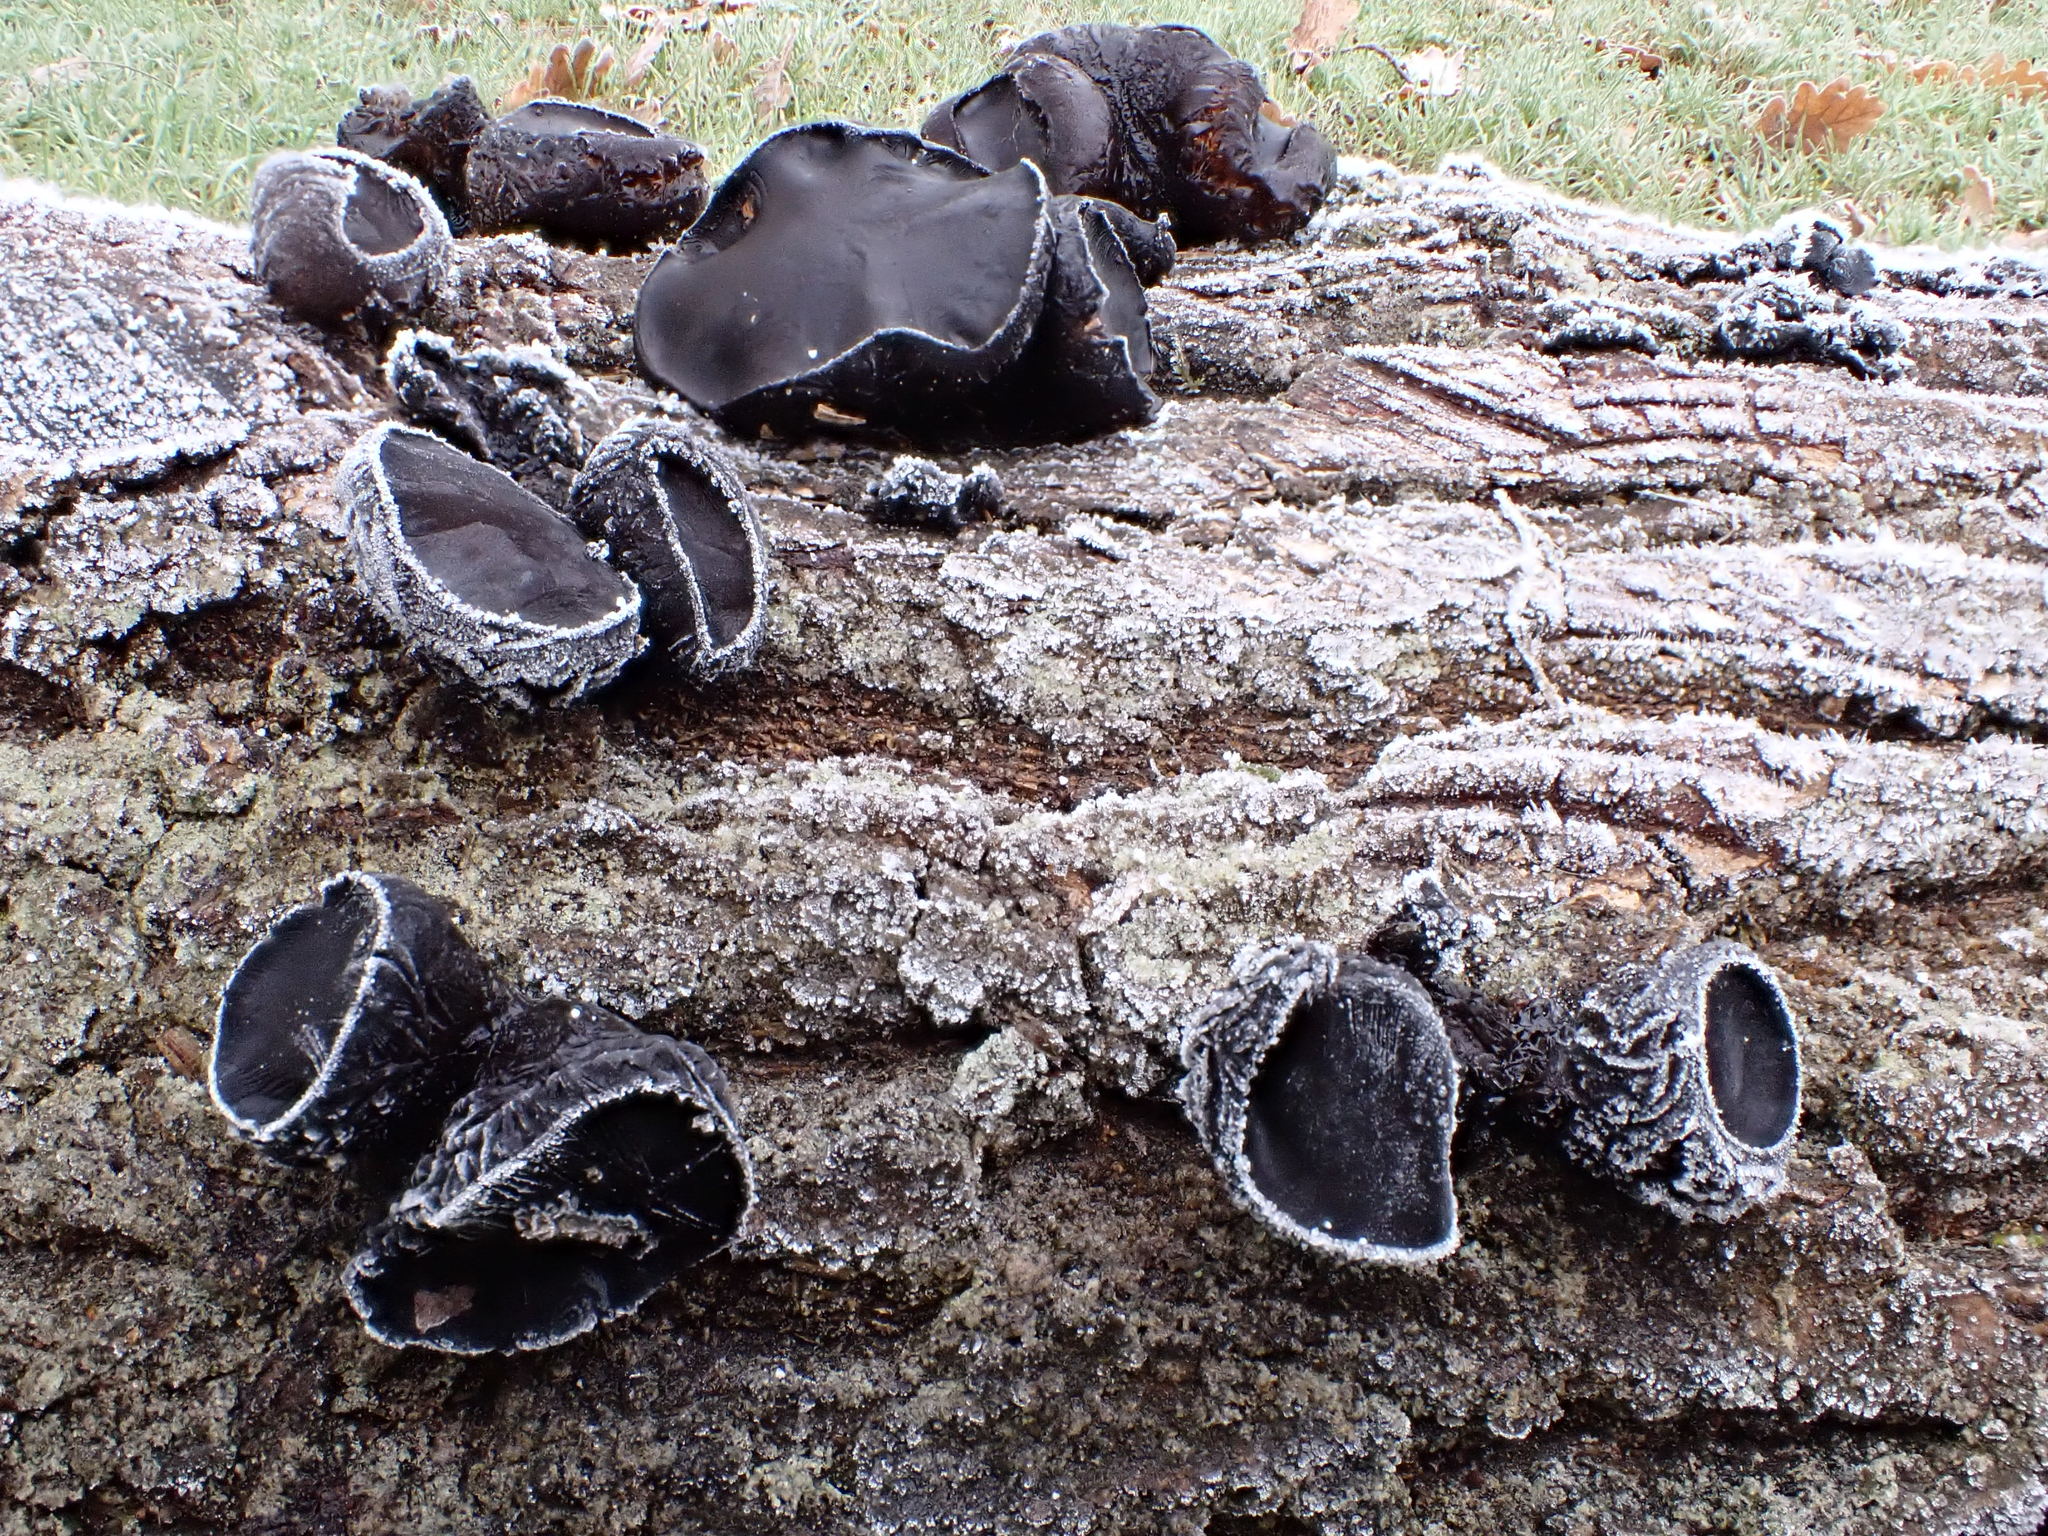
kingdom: Fungi
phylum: Ascomycota
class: Leotiomycetes
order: Phacidiales
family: Phacidiaceae
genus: Bulgaria
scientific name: Bulgaria inquinans
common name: Black bulgar
